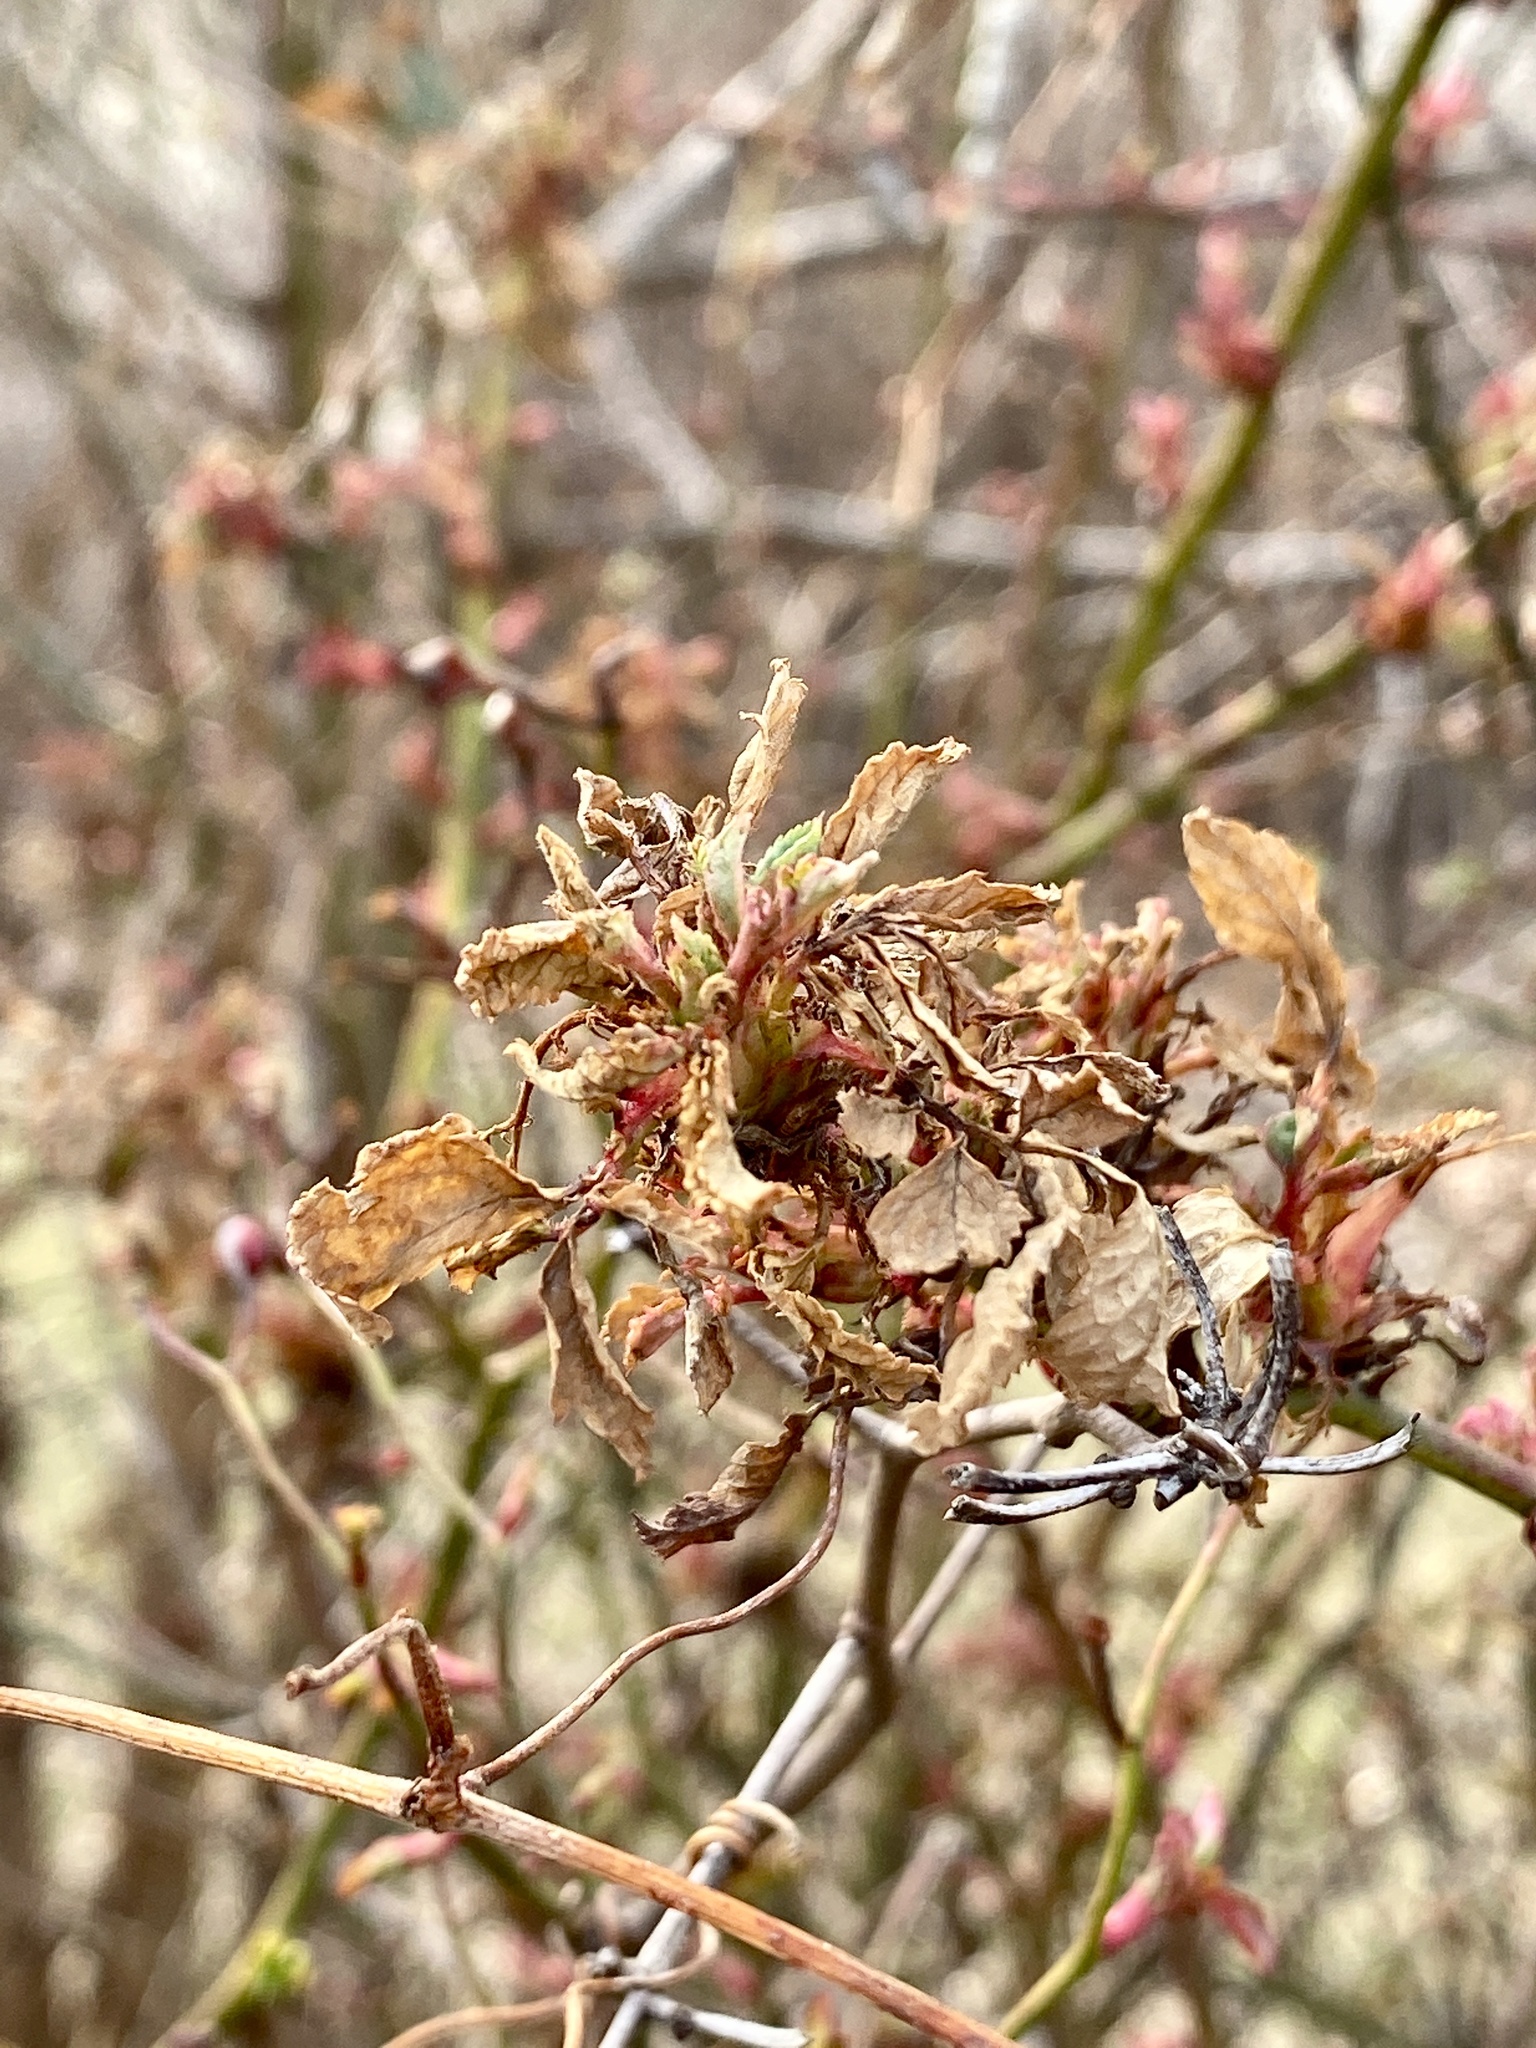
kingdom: Viruses
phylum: Negarnaviricota
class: Ellioviricetes
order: Bunyavirales
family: Fimoviridae
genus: Emaravirus
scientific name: Emaravirus rosae
